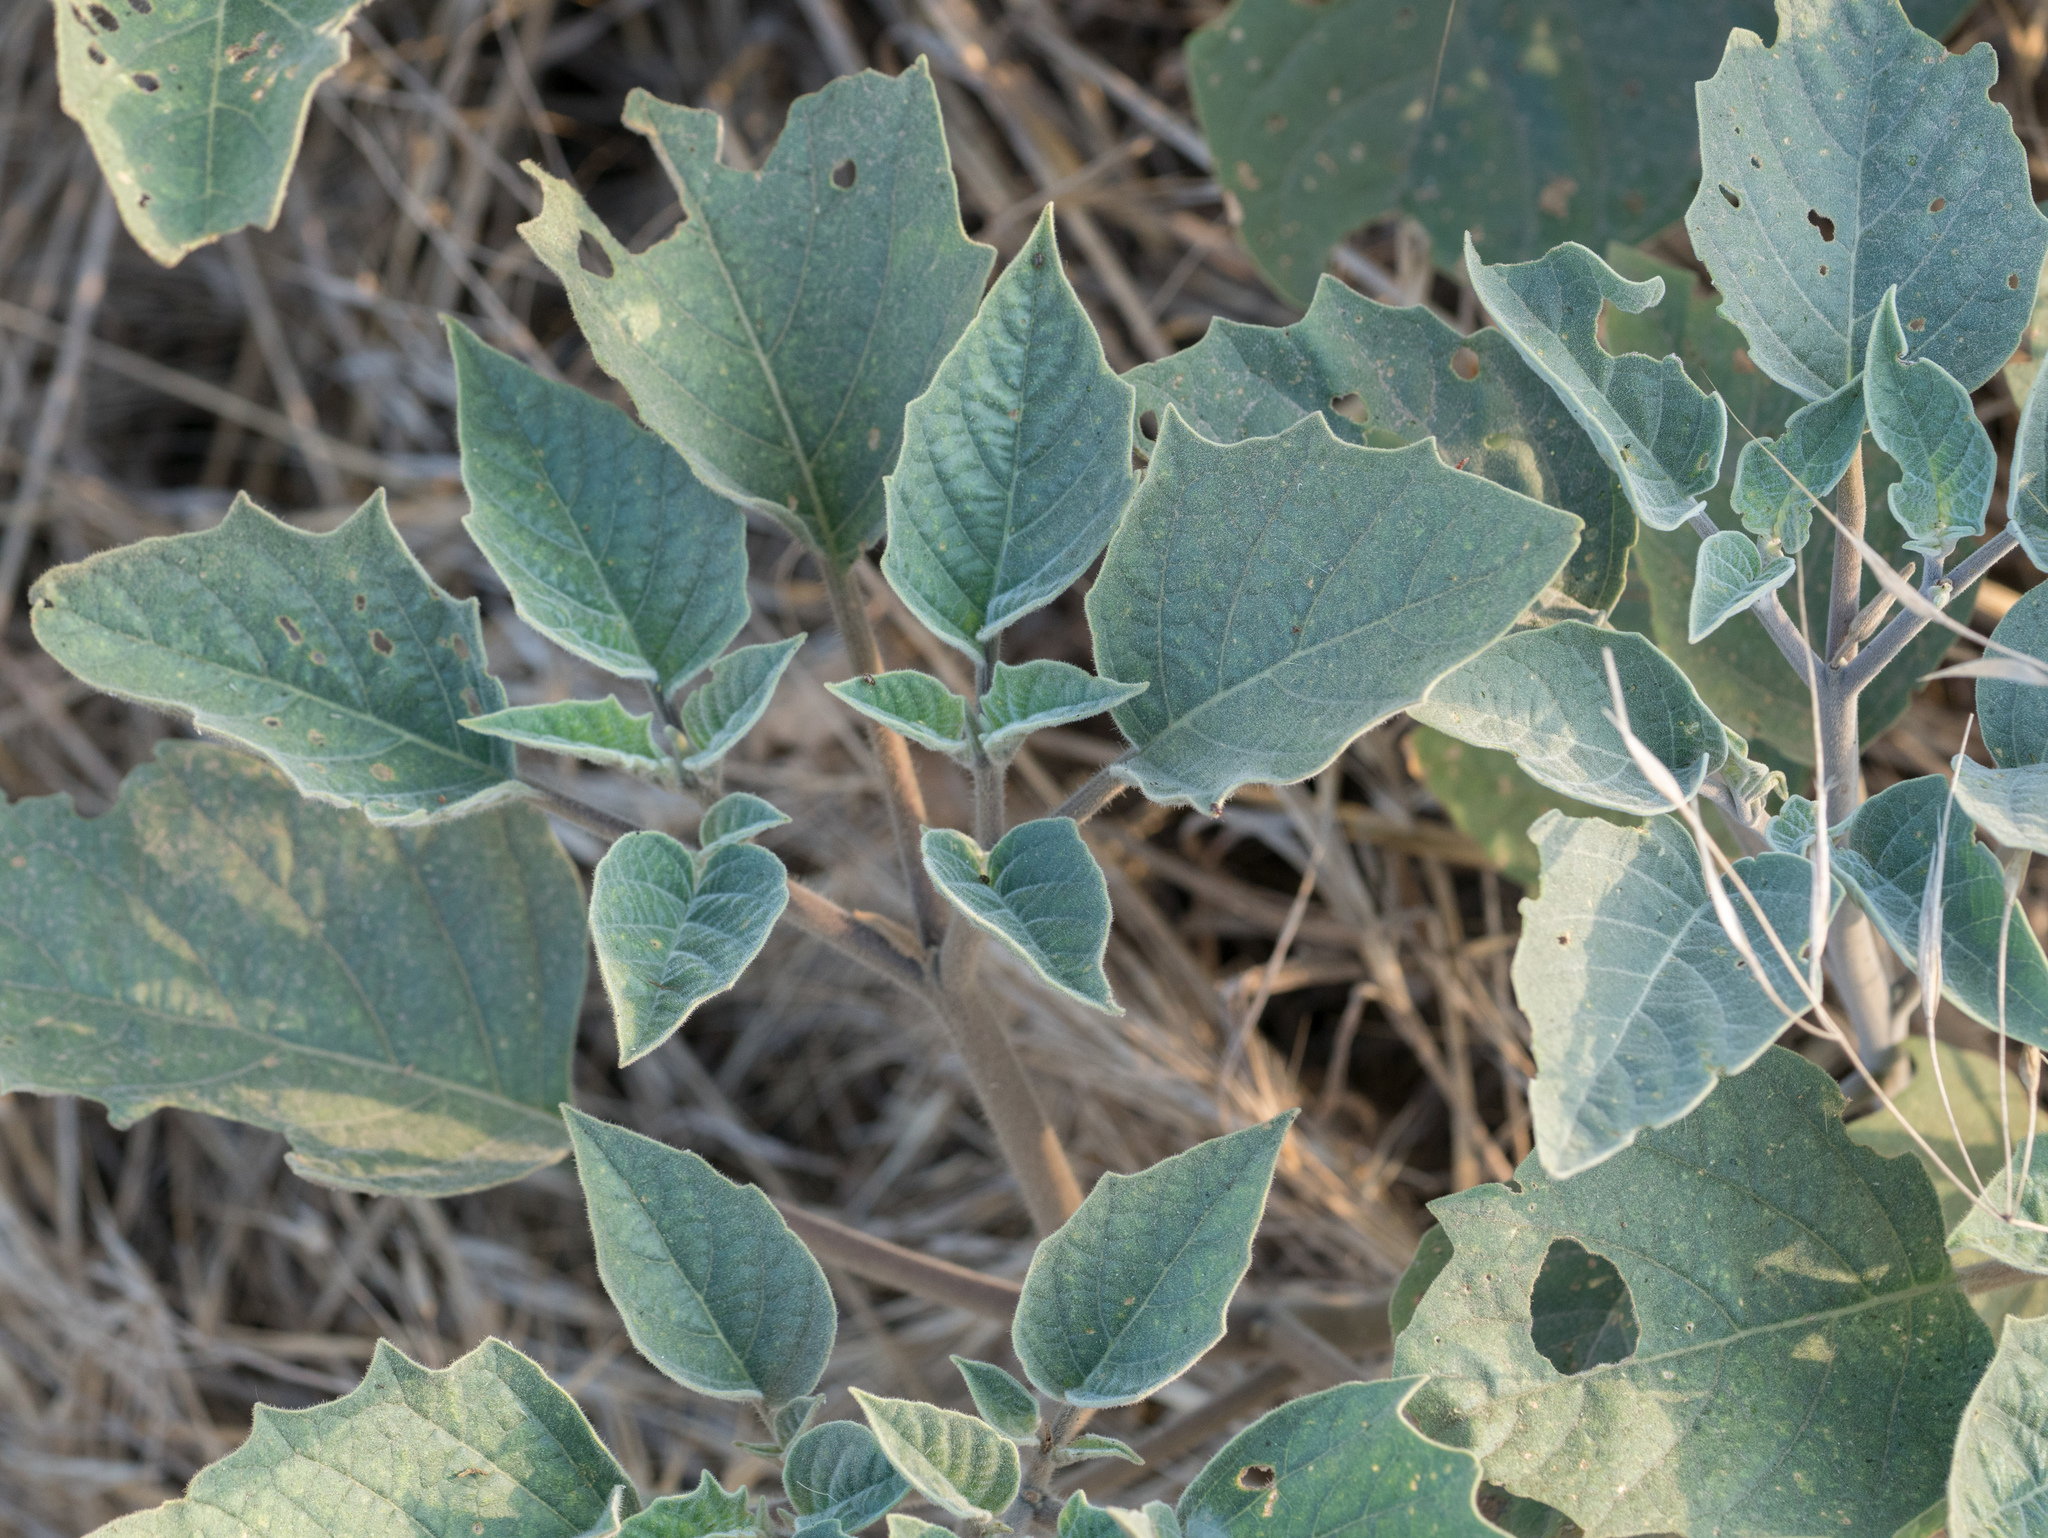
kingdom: Plantae
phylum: Tracheophyta
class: Magnoliopsida
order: Solanales
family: Solanaceae
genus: Datura
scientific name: Datura wrightii
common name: Sacred thorn-apple
